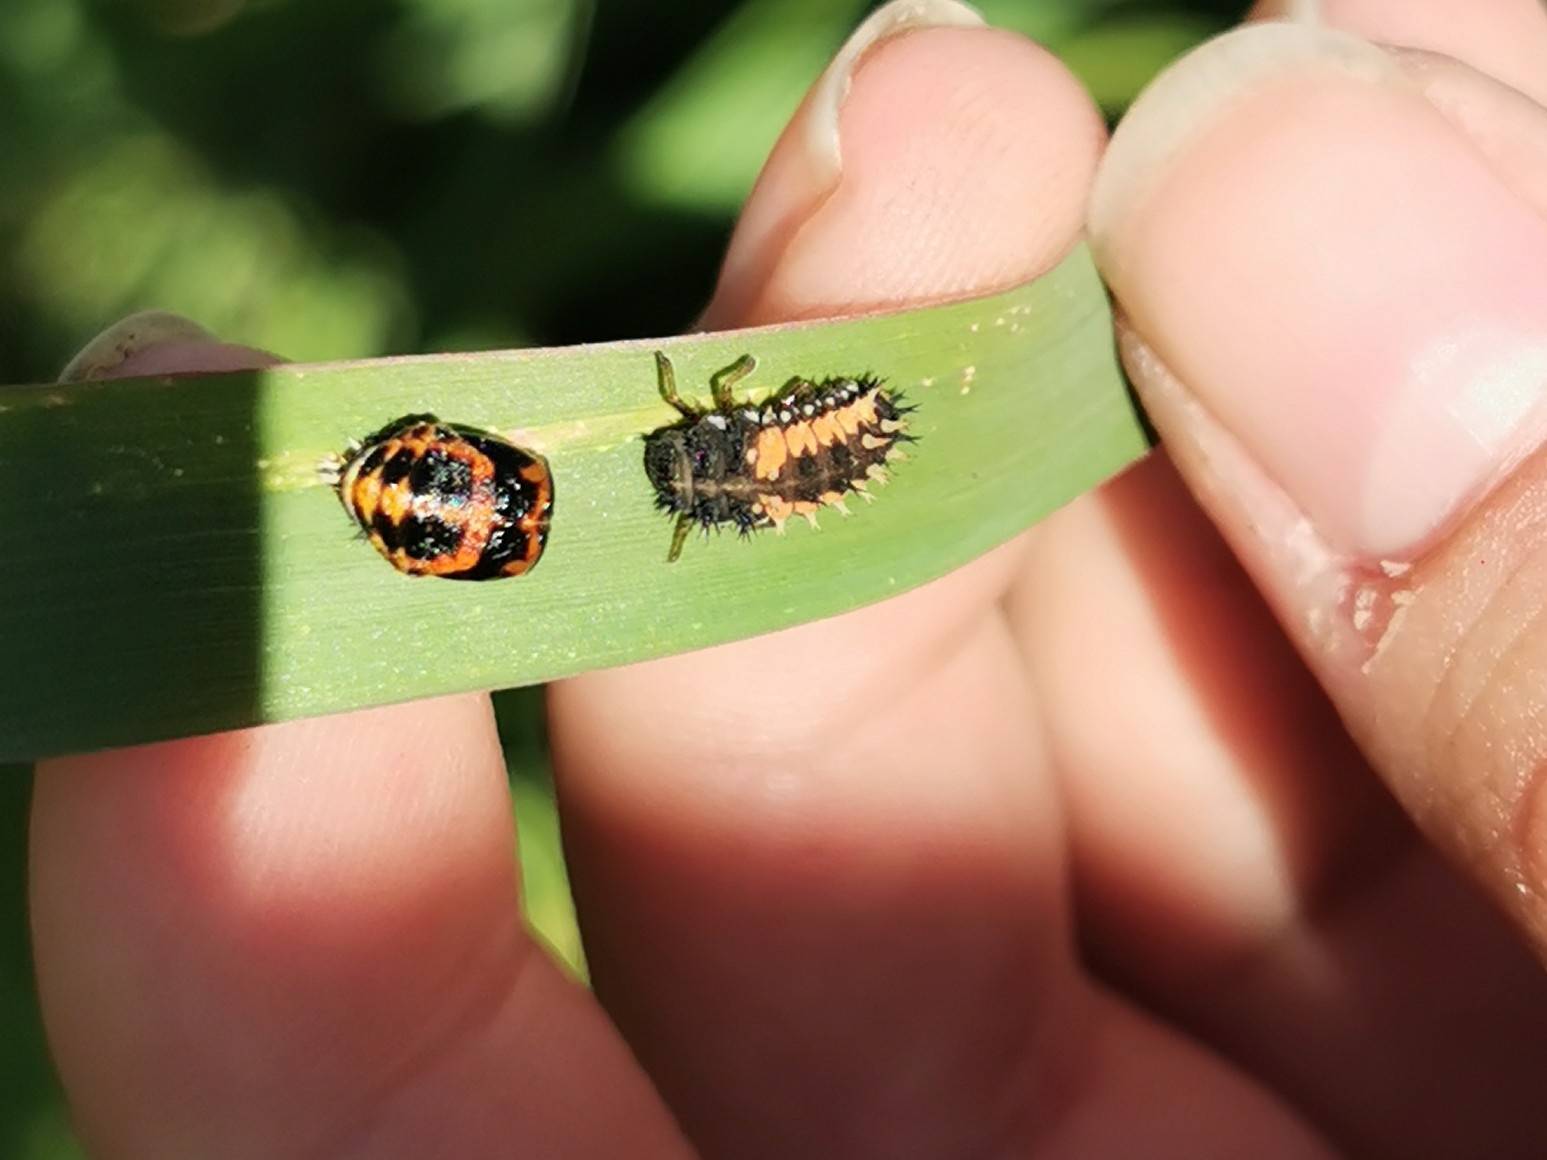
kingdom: Animalia
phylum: Arthropoda
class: Insecta
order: Coleoptera
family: Coccinellidae
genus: Harmonia
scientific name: Harmonia axyridis
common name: Harlequin ladybird
